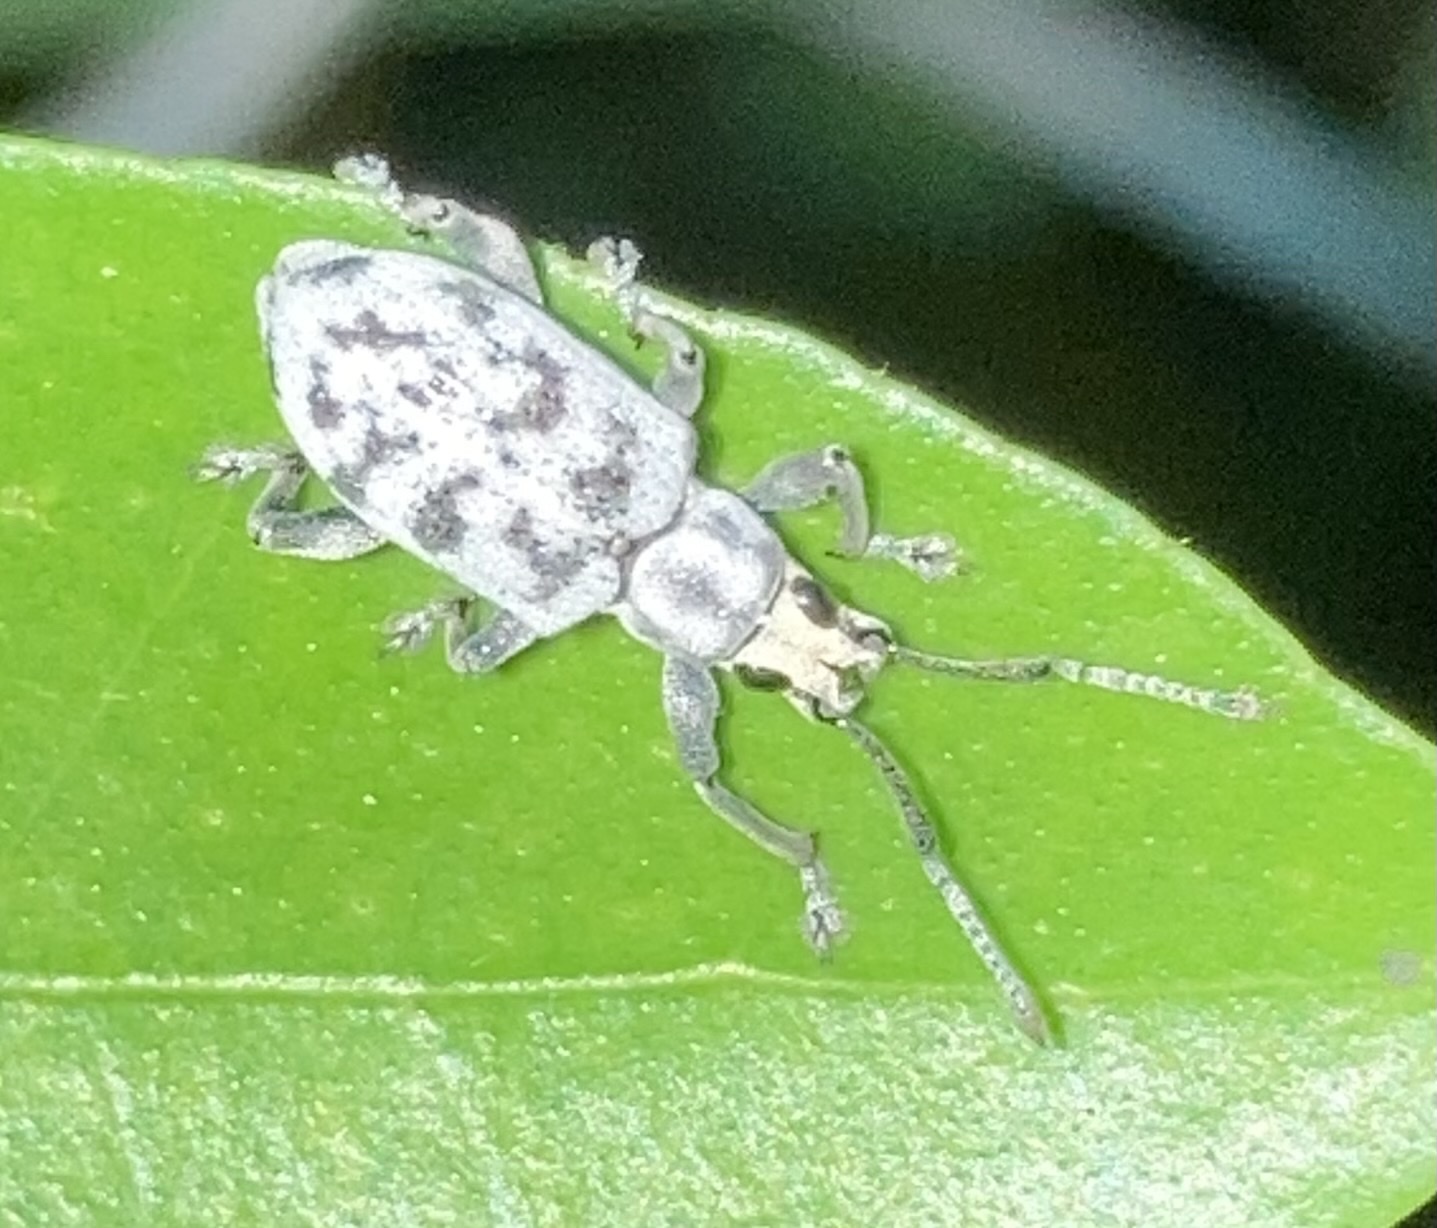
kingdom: Animalia
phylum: Arthropoda
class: Insecta
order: Coleoptera
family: Curculionidae
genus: Myllocerus
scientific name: Myllocerus undecimpustulatus
